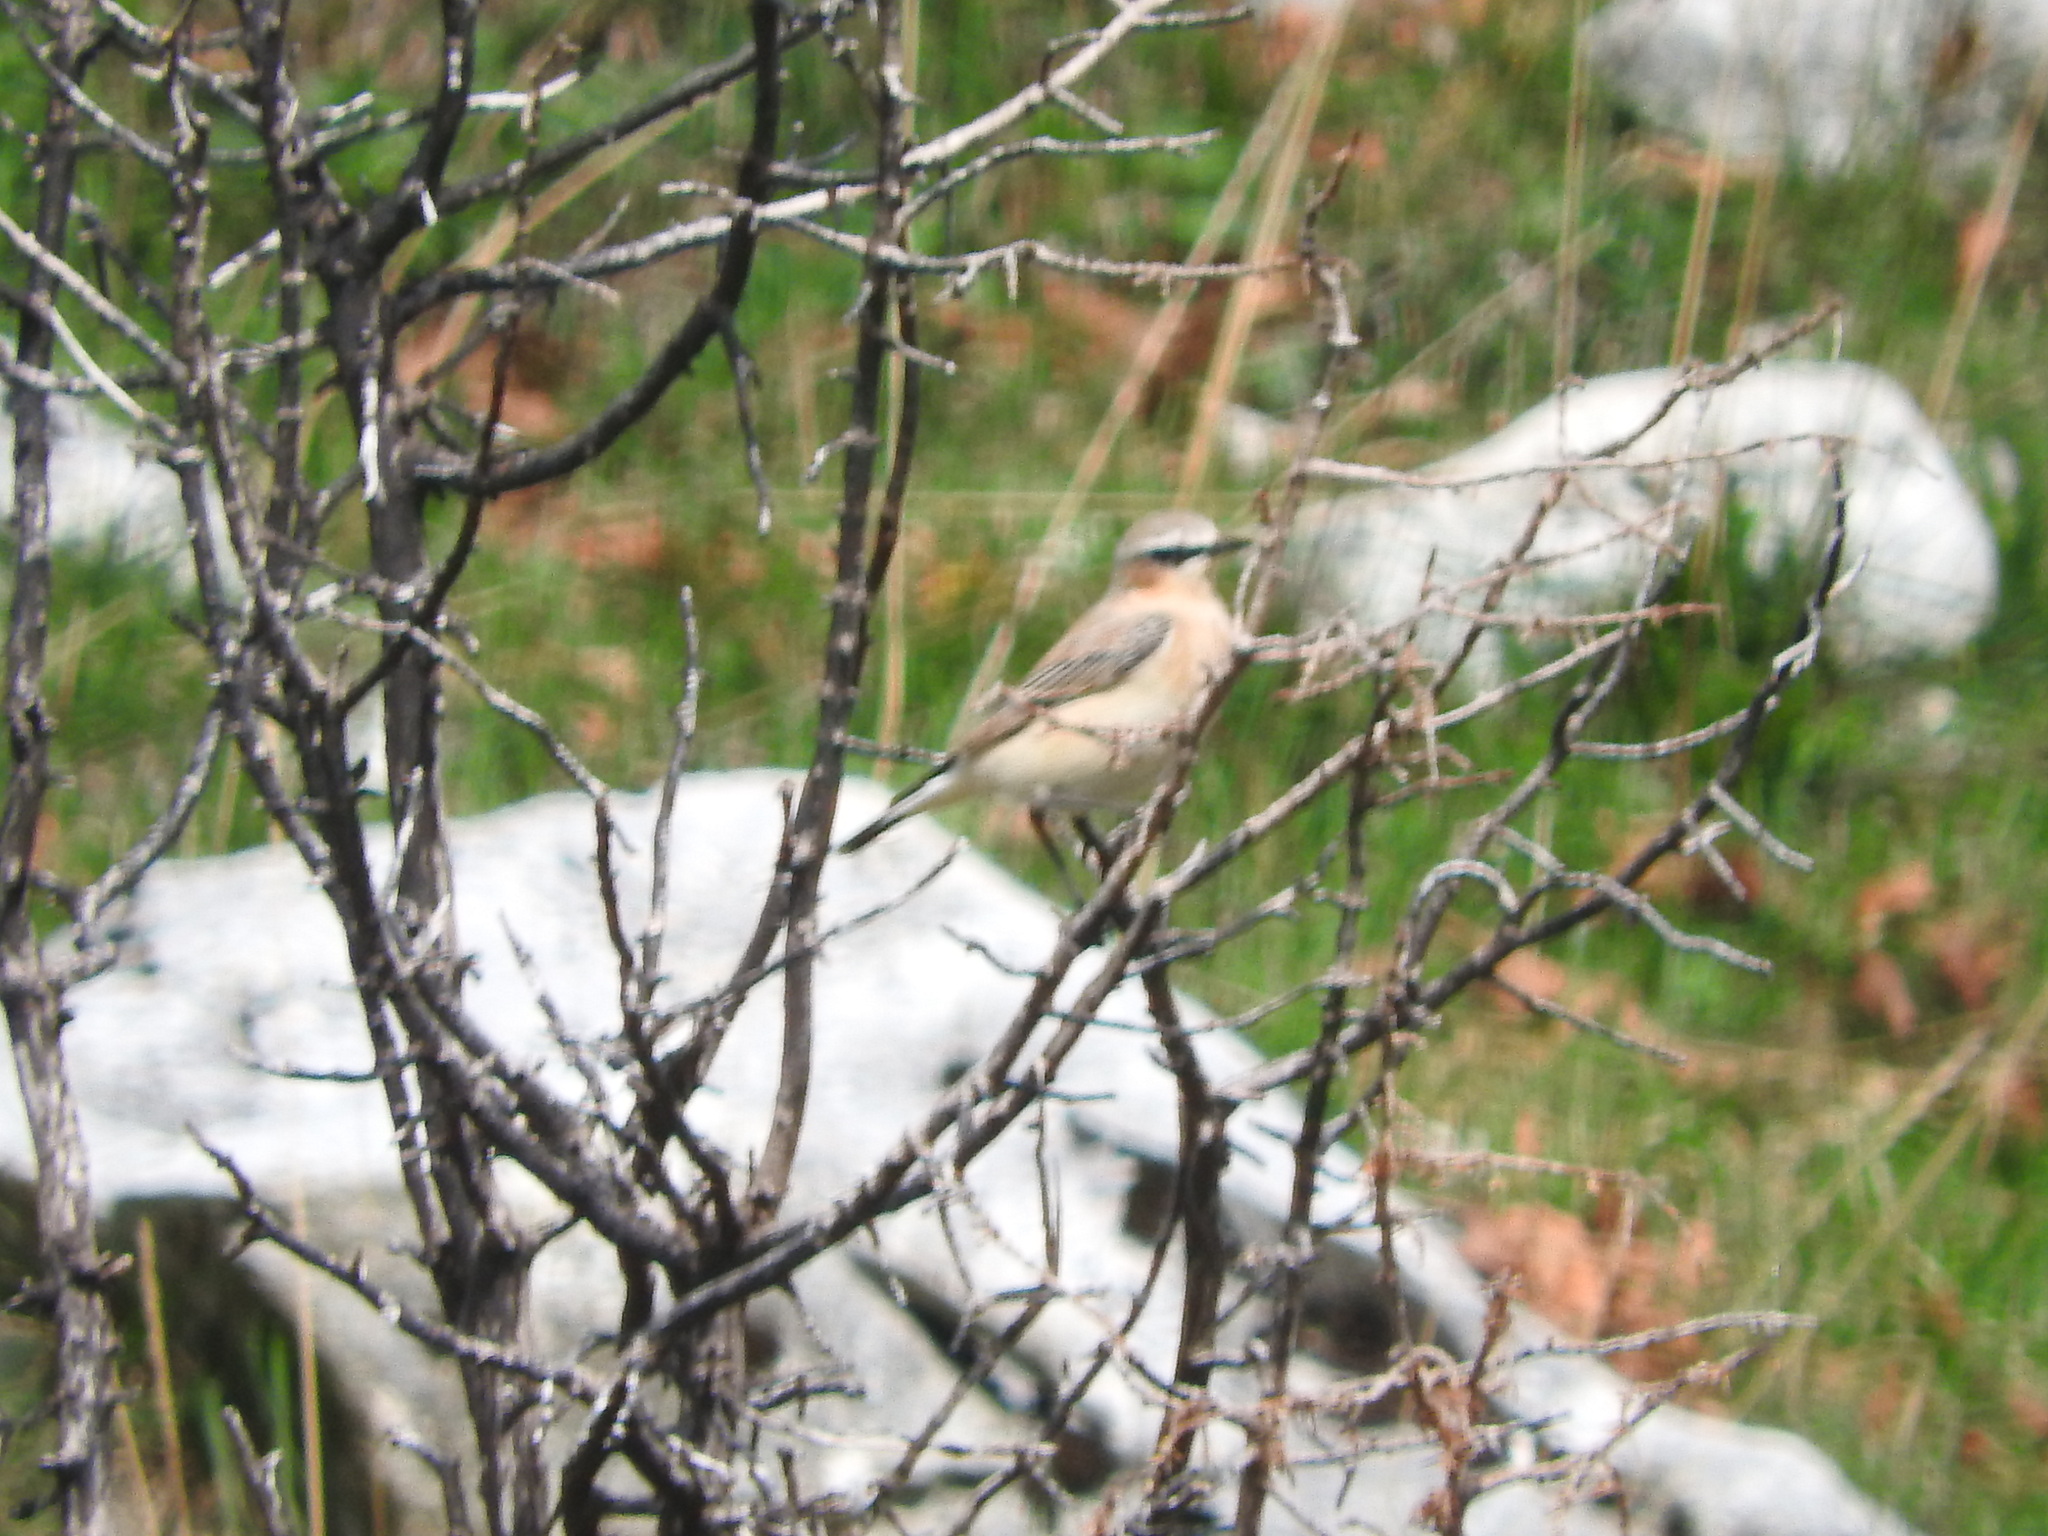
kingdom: Animalia
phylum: Chordata
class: Aves
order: Passeriformes
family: Muscicapidae
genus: Oenanthe
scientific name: Oenanthe oenanthe
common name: Northern wheatear
